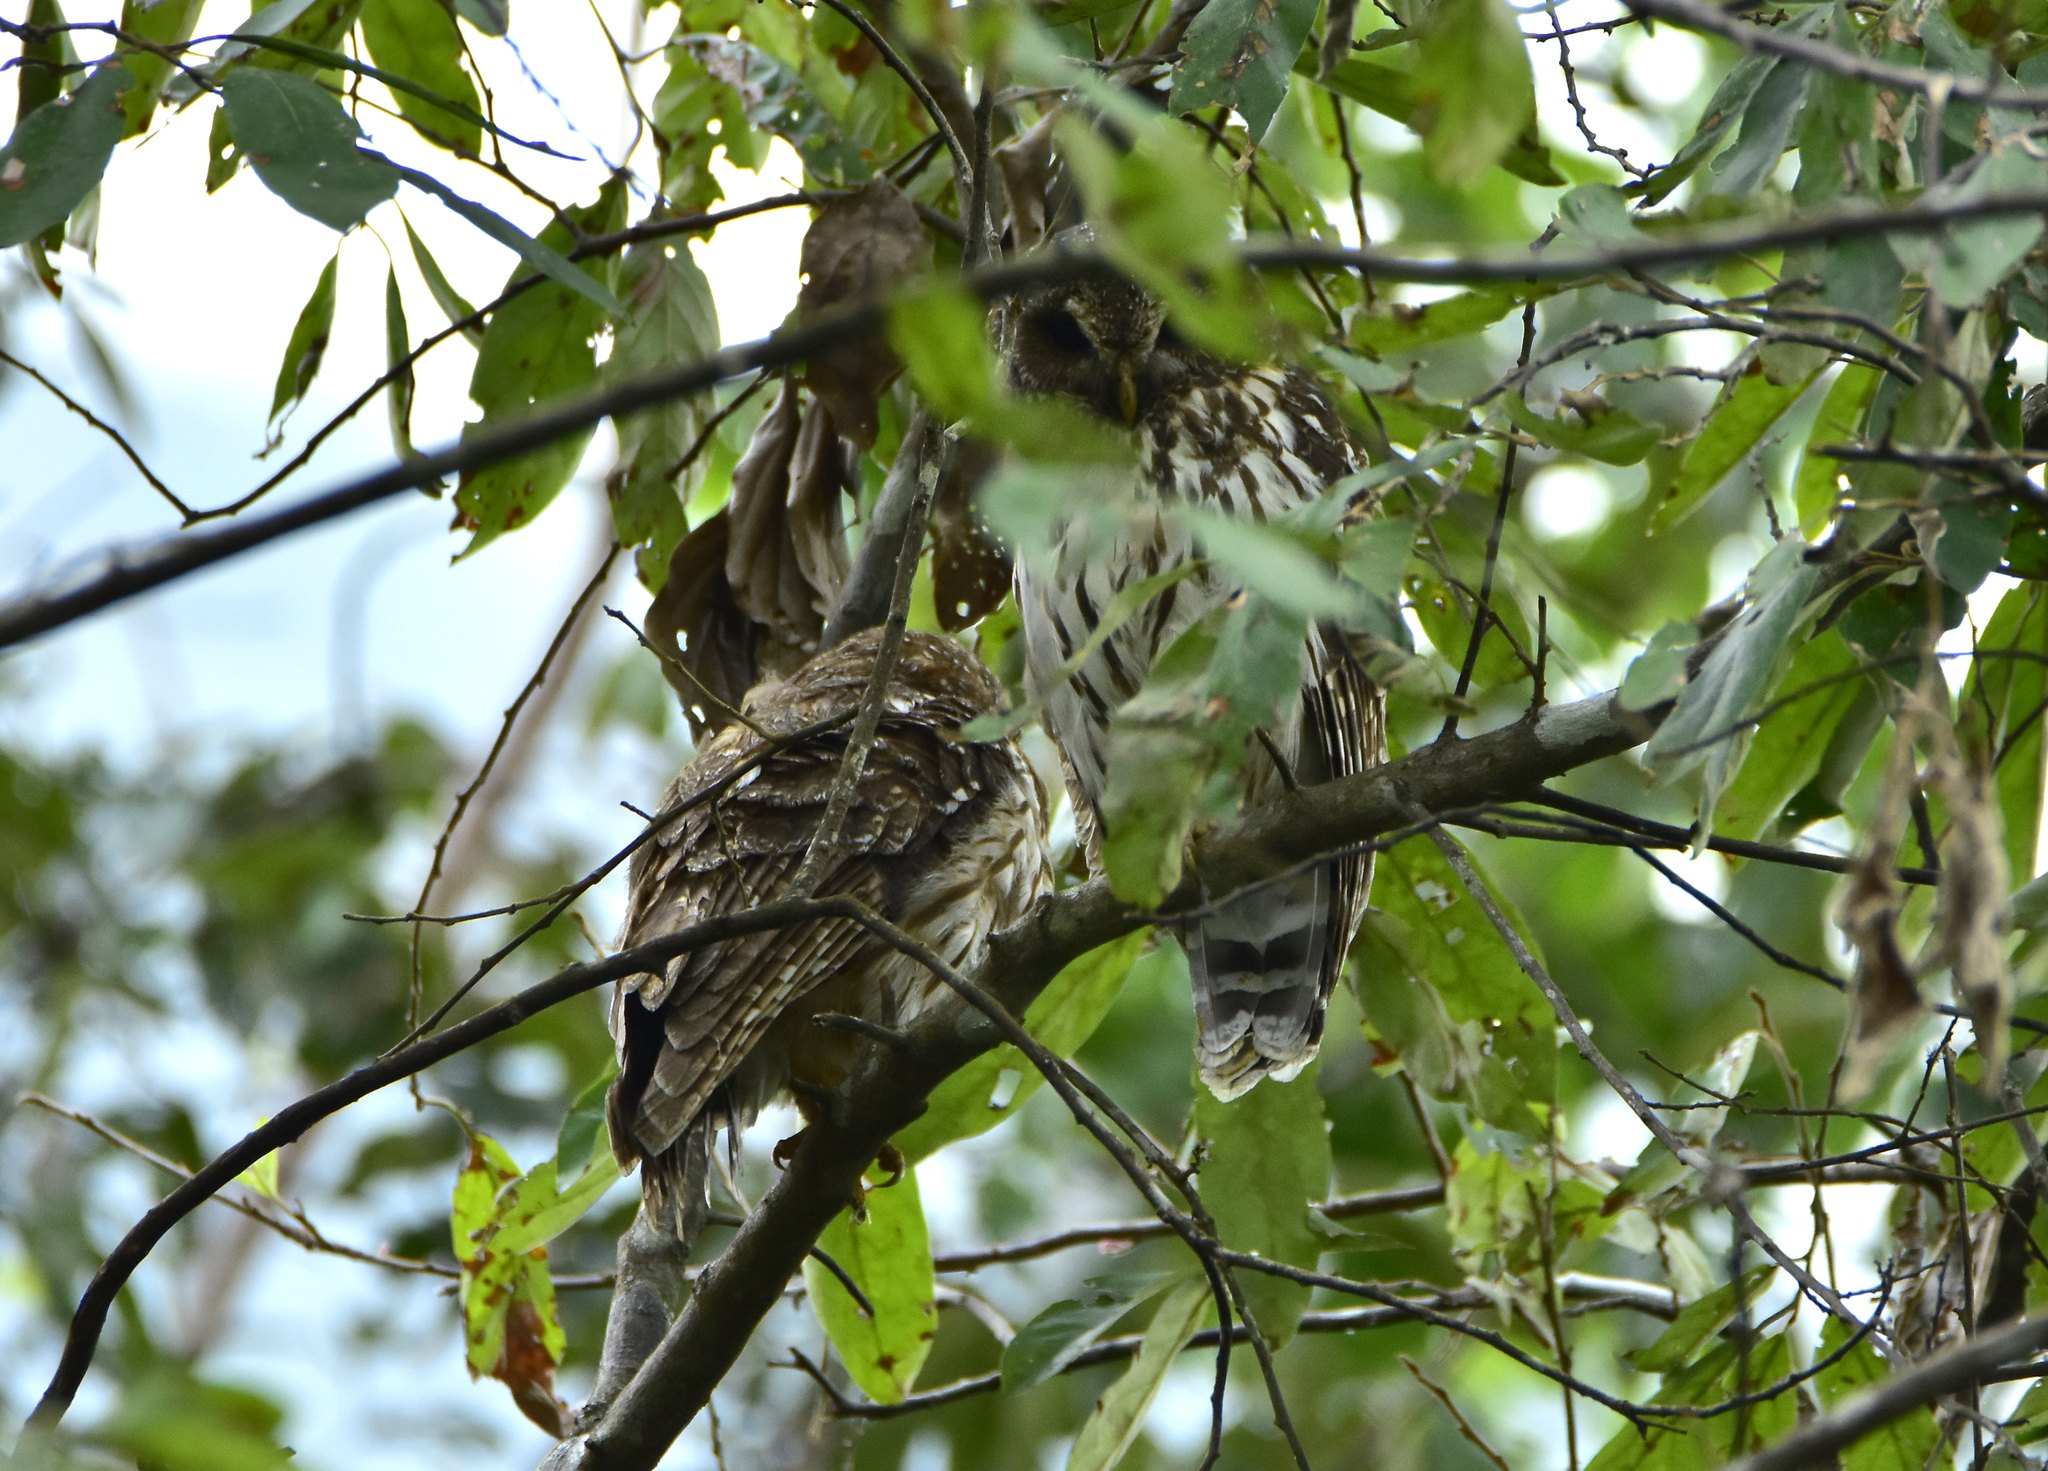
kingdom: Animalia
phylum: Chordata
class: Aves
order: Strigiformes
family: Strigidae
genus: Strix
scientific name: Strix virgata
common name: Mottled owl
